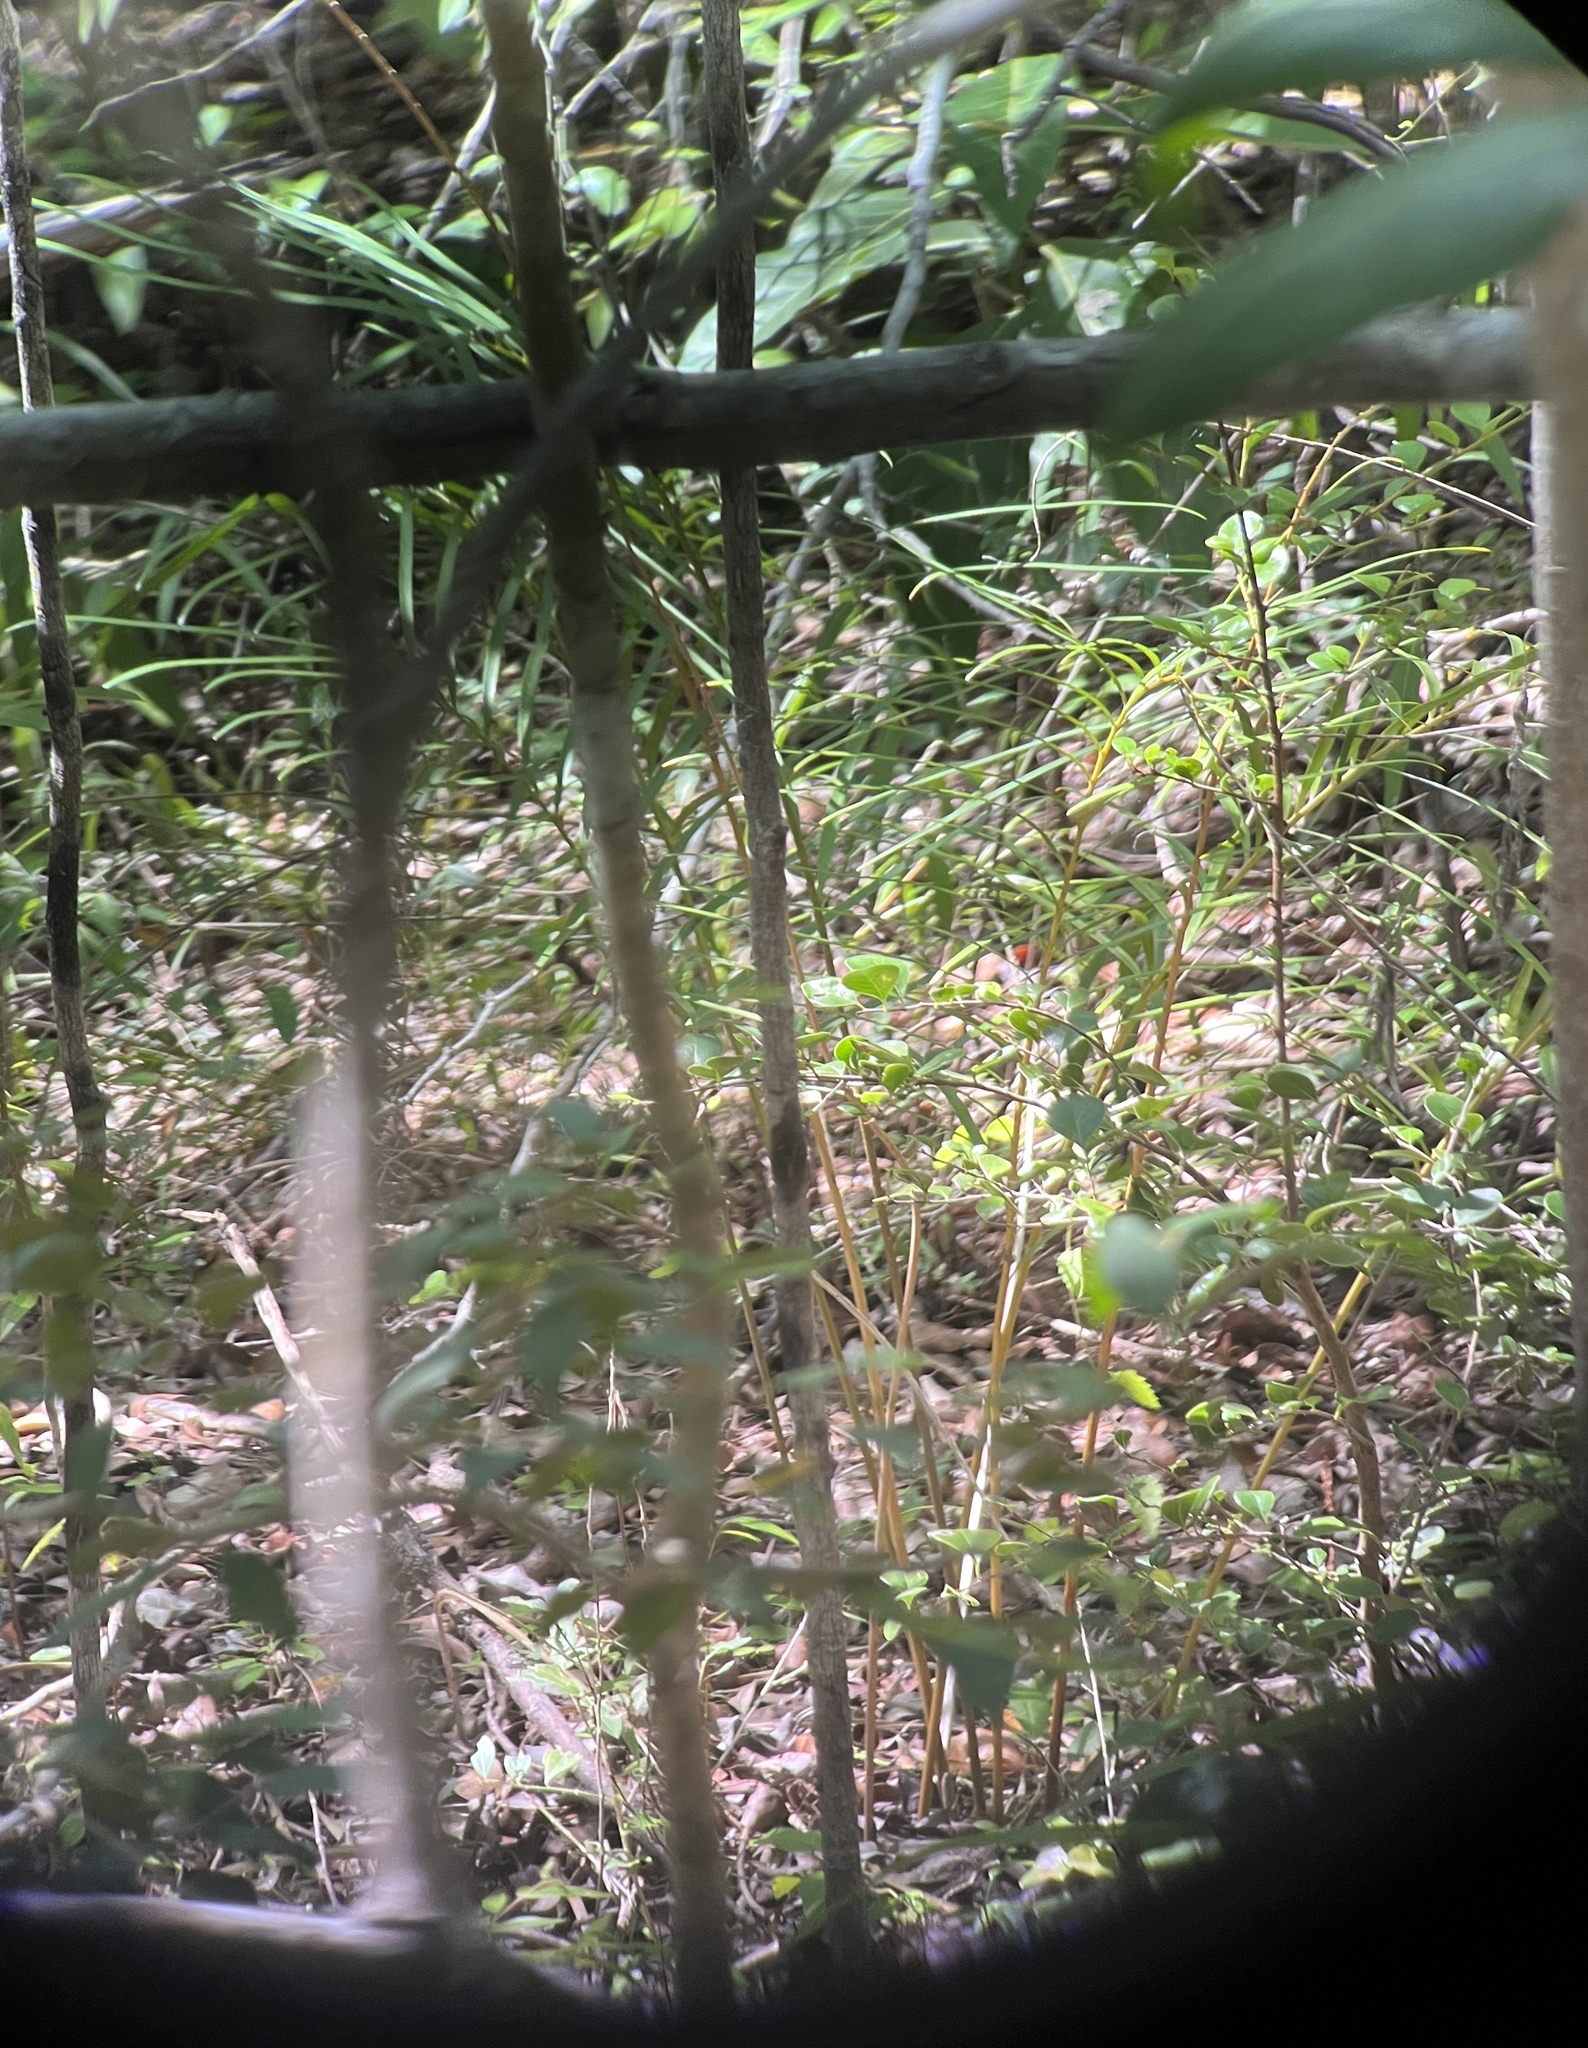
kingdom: Plantae
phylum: Tracheophyta
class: Cycadopsida
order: Cycadales
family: Zamiaceae
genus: Zamia
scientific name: Zamia portoricensis
